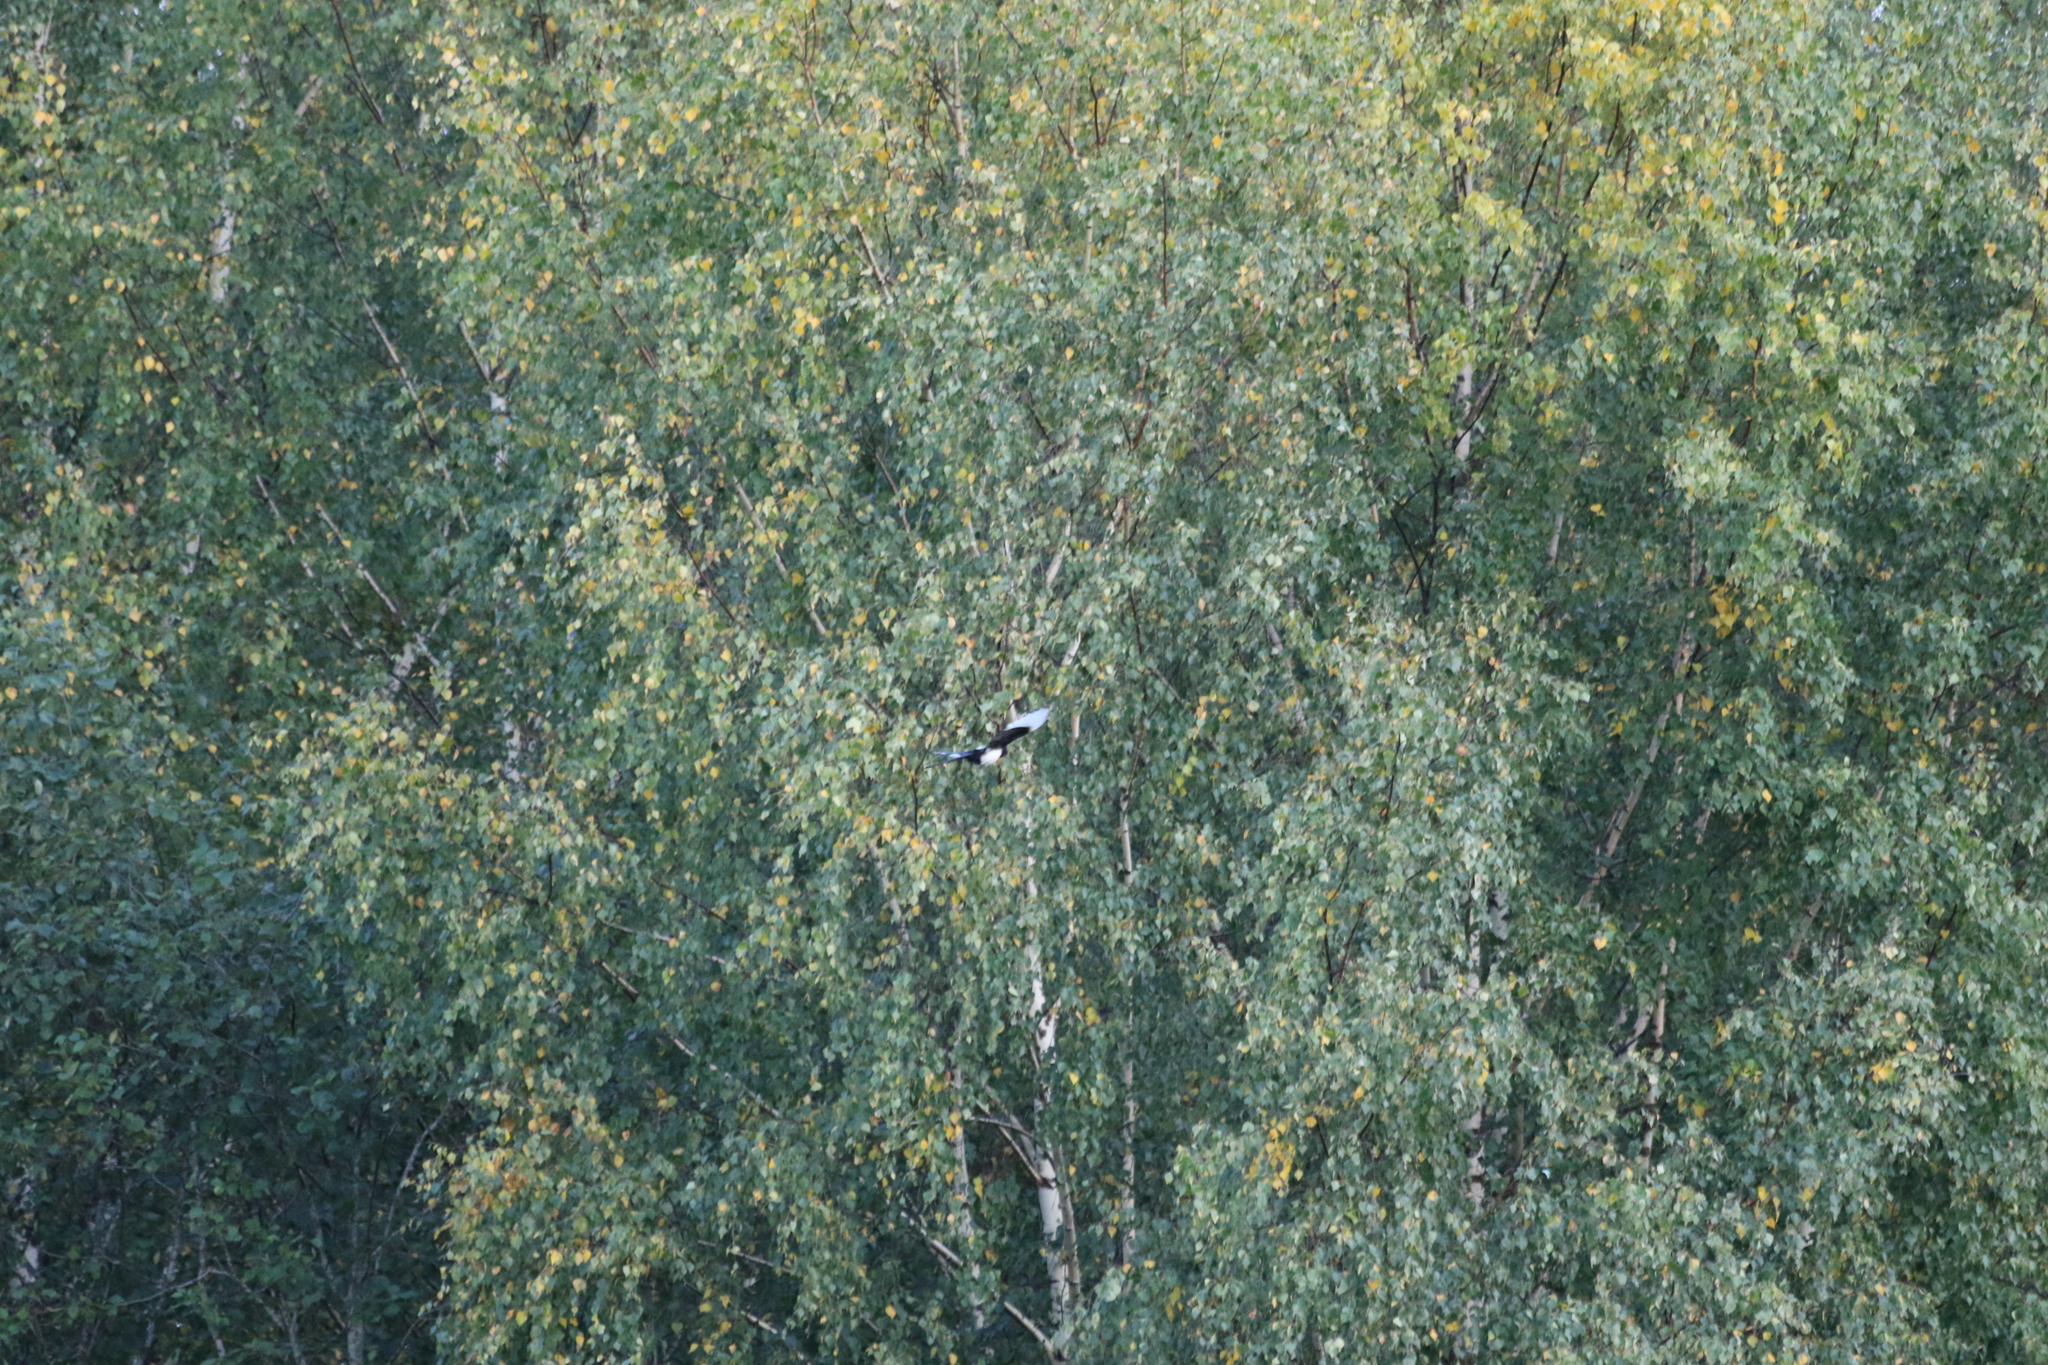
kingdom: Animalia
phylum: Chordata
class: Aves
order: Passeriformes
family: Corvidae
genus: Pica
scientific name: Pica pica
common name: Eurasian magpie
